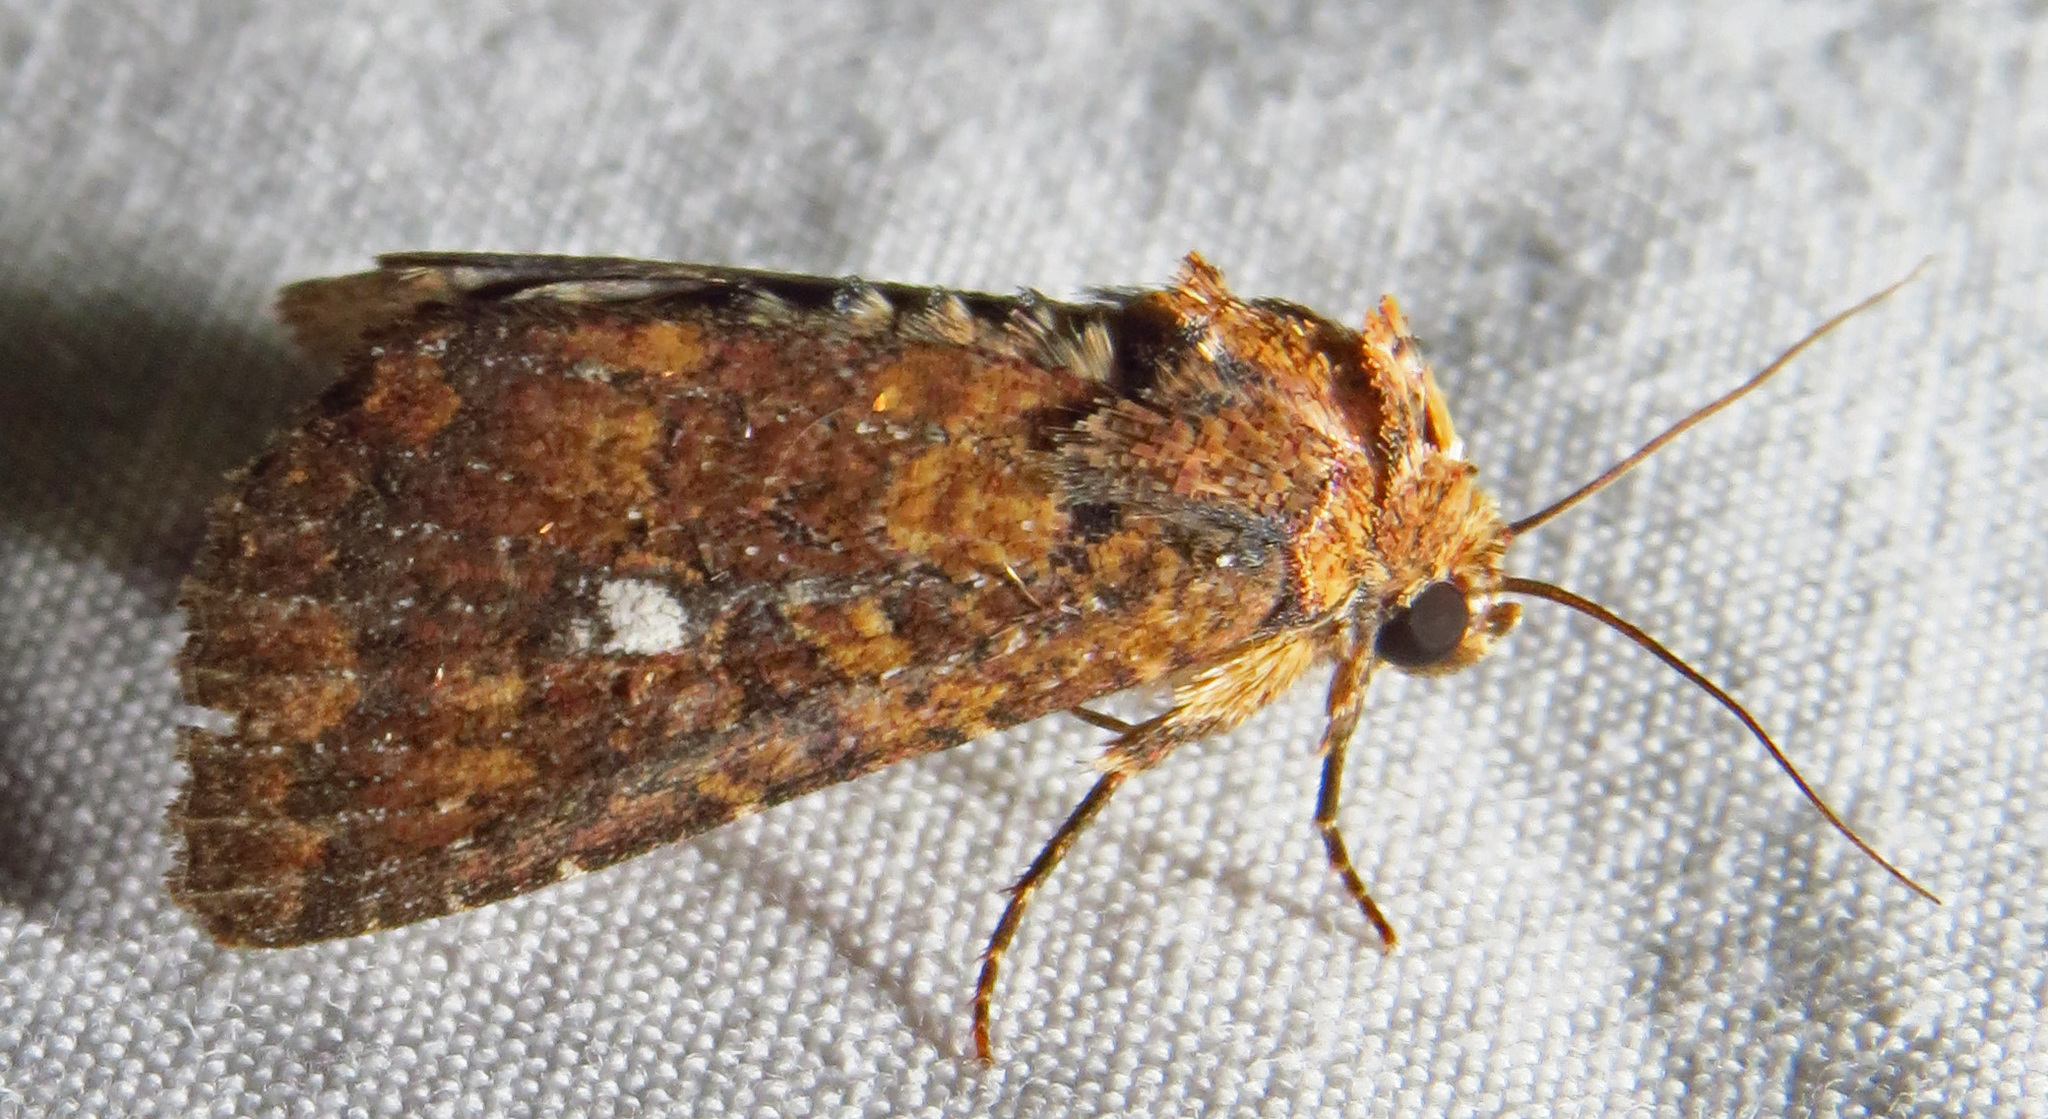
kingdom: Animalia
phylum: Arthropoda
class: Insecta
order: Lepidoptera
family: Noctuidae
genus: Condica
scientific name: Condica mobilis
